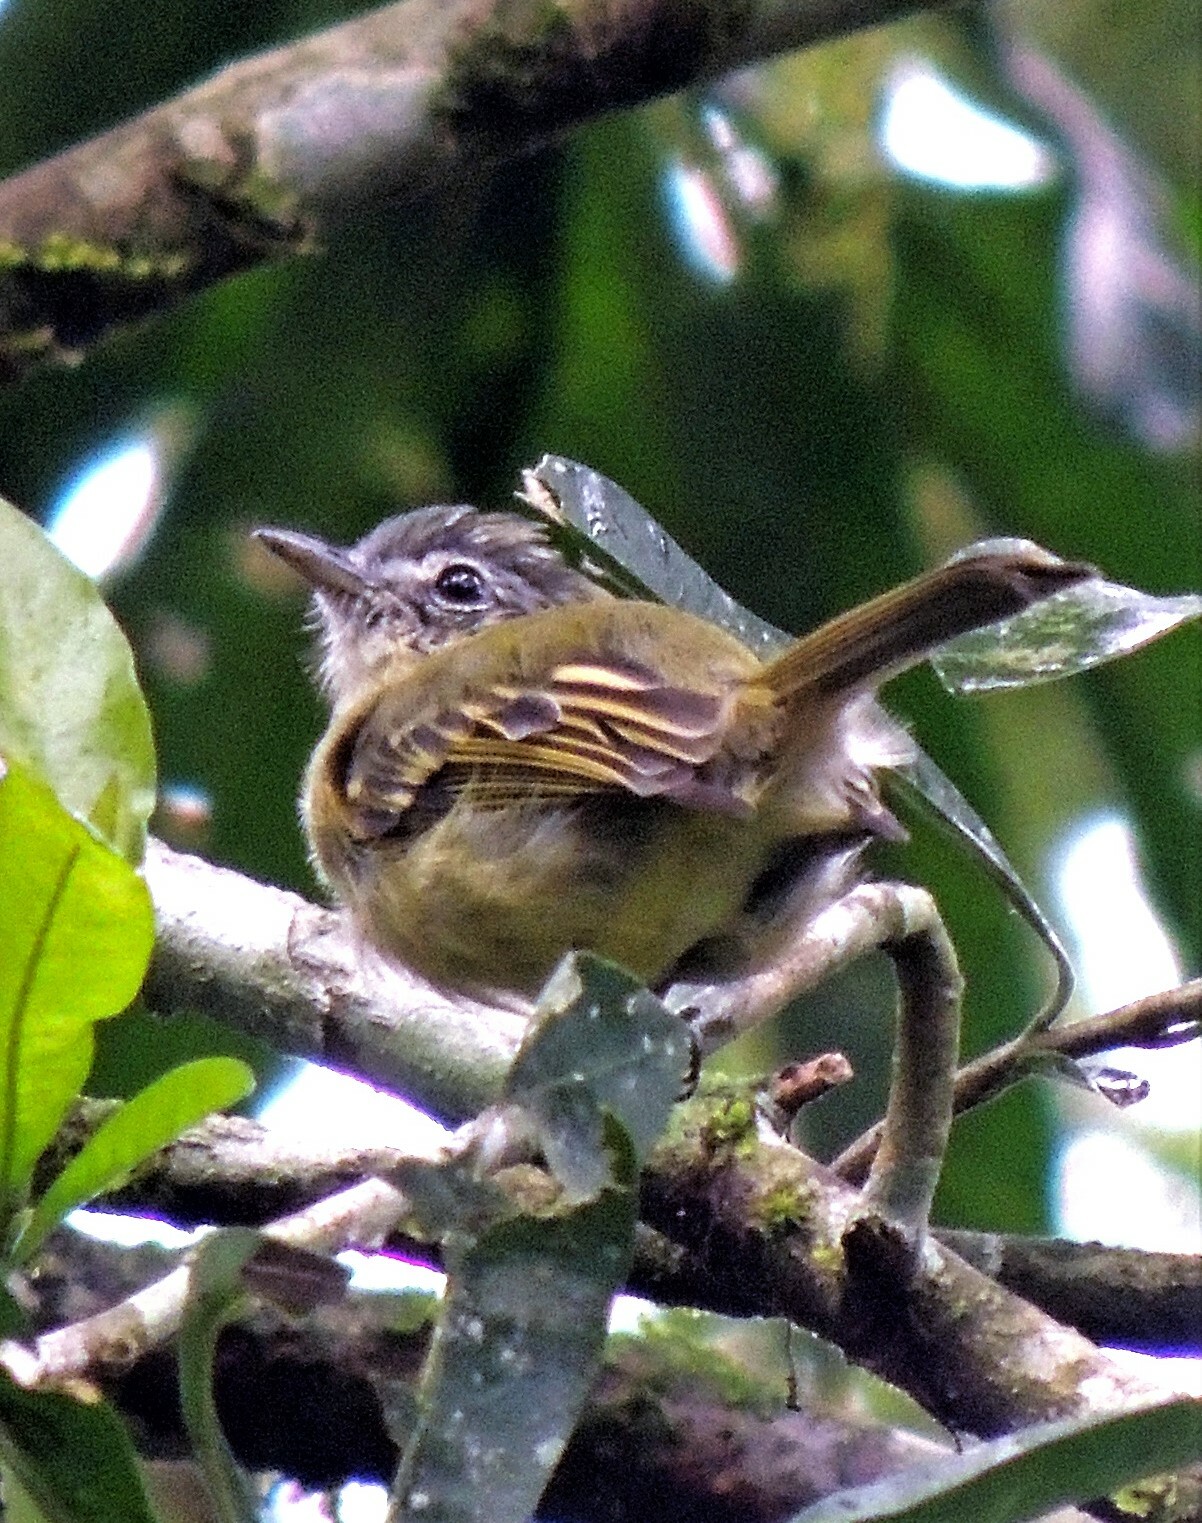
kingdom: Animalia
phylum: Chordata
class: Aves
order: Passeriformes
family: Tyrannidae
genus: Tolmomyias
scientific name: Tolmomyias sulphurescens
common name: Yellow-olive flycatcher
